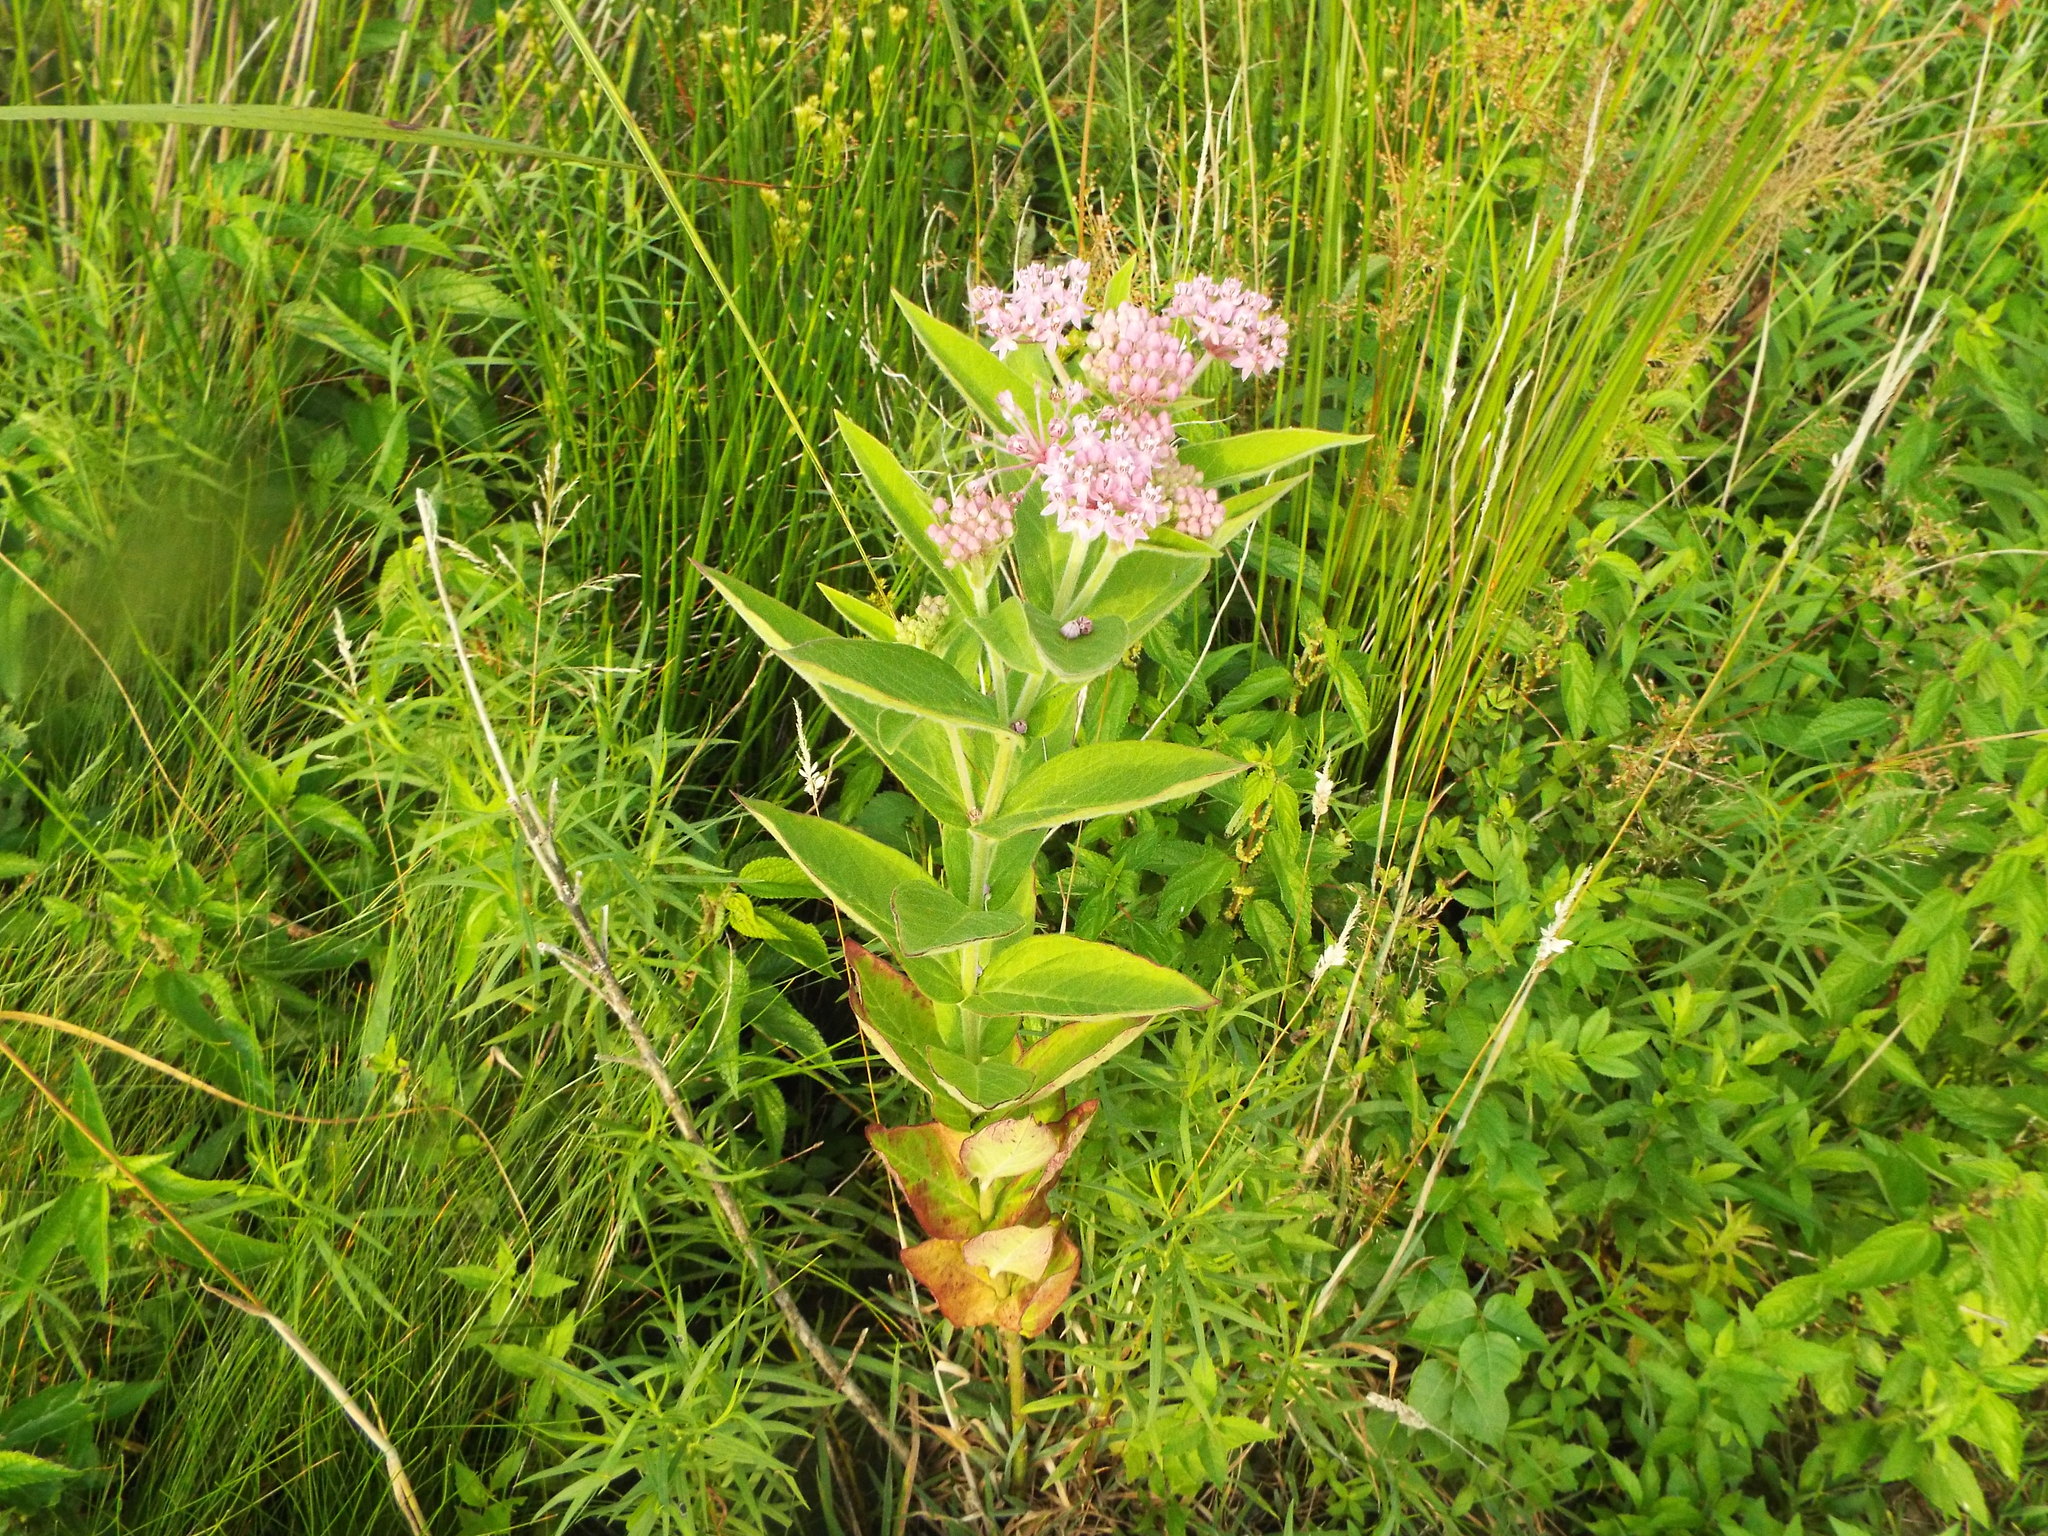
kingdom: Plantae
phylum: Tracheophyta
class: Magnoliopsida
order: Gentianales
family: Apocynaceae
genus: Asclepias
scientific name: Asclepias incarnata
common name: Swamp milkweed
